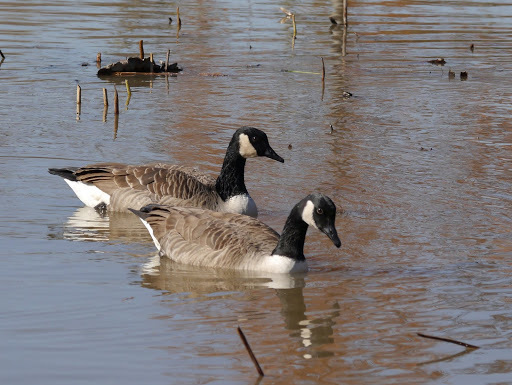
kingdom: Animalia
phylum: Chordata
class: Aves
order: Anseriformes
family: Anatidae
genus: Branta
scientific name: Branta canadensis
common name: Canada goose
